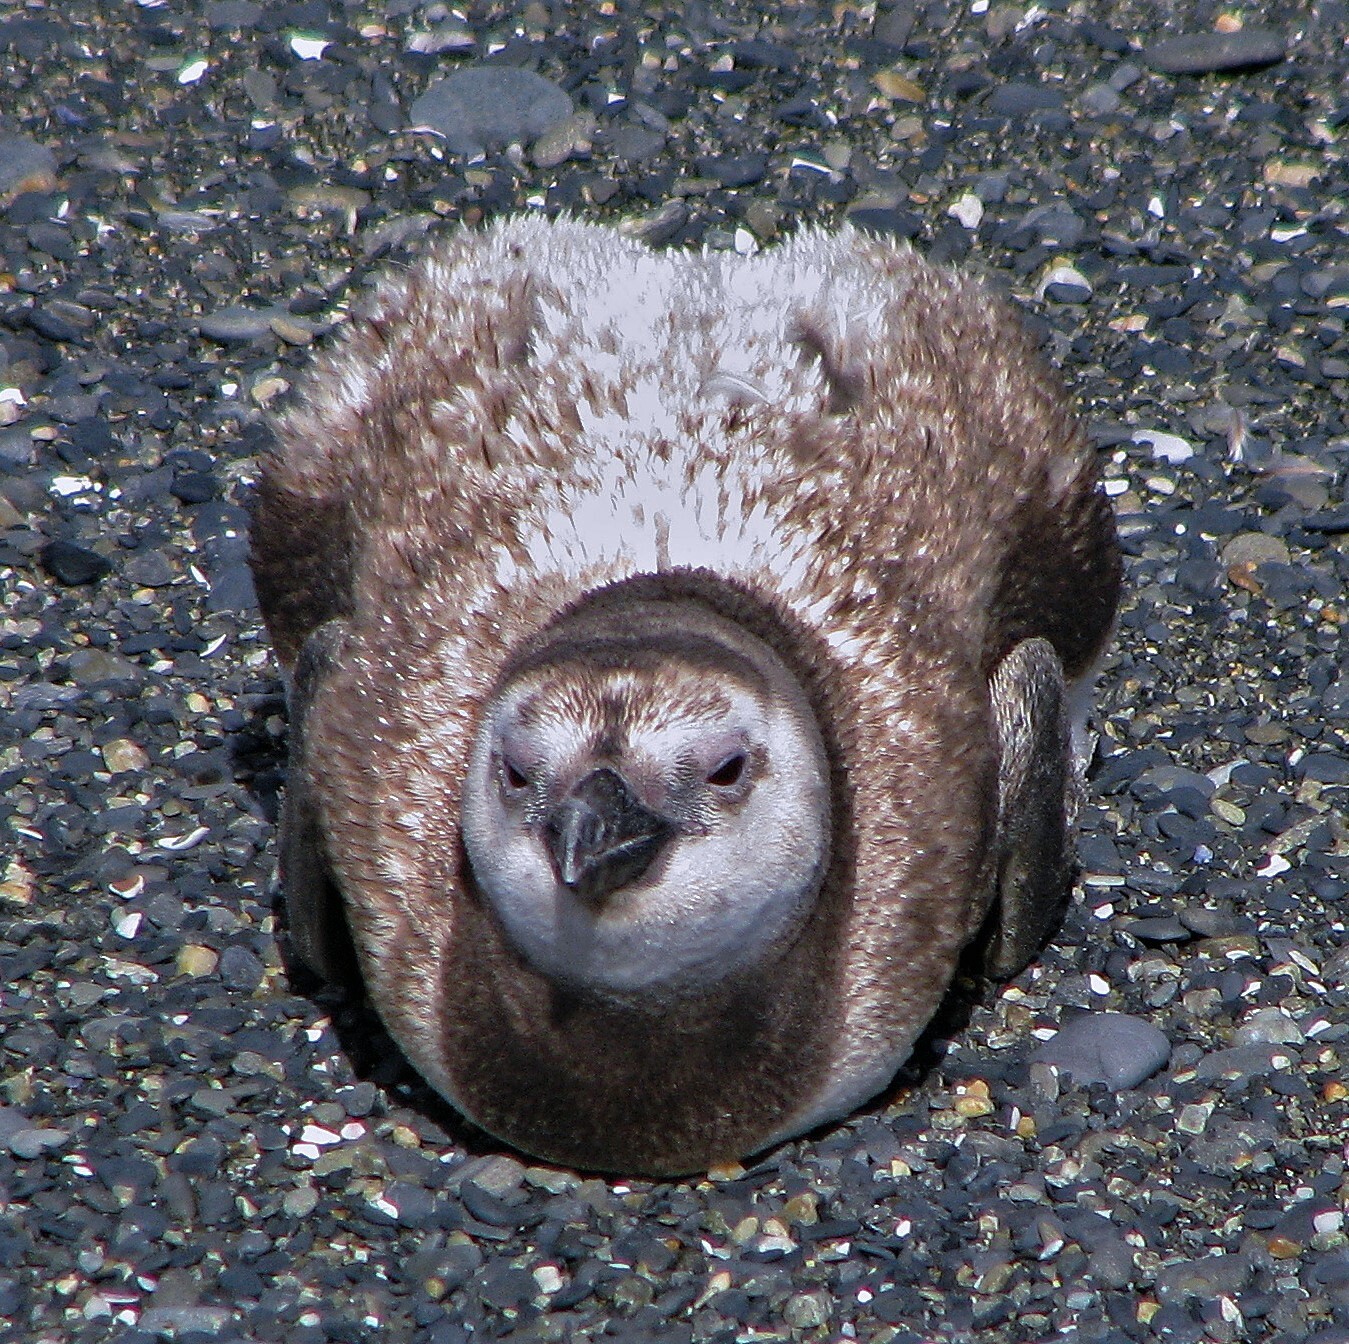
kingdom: Animalia
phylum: Chordata
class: Aves
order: Sphenisciformes
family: Spheniscidae
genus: Spheniscus
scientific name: Spheniscus magellanicus
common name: Magellanic penguin
